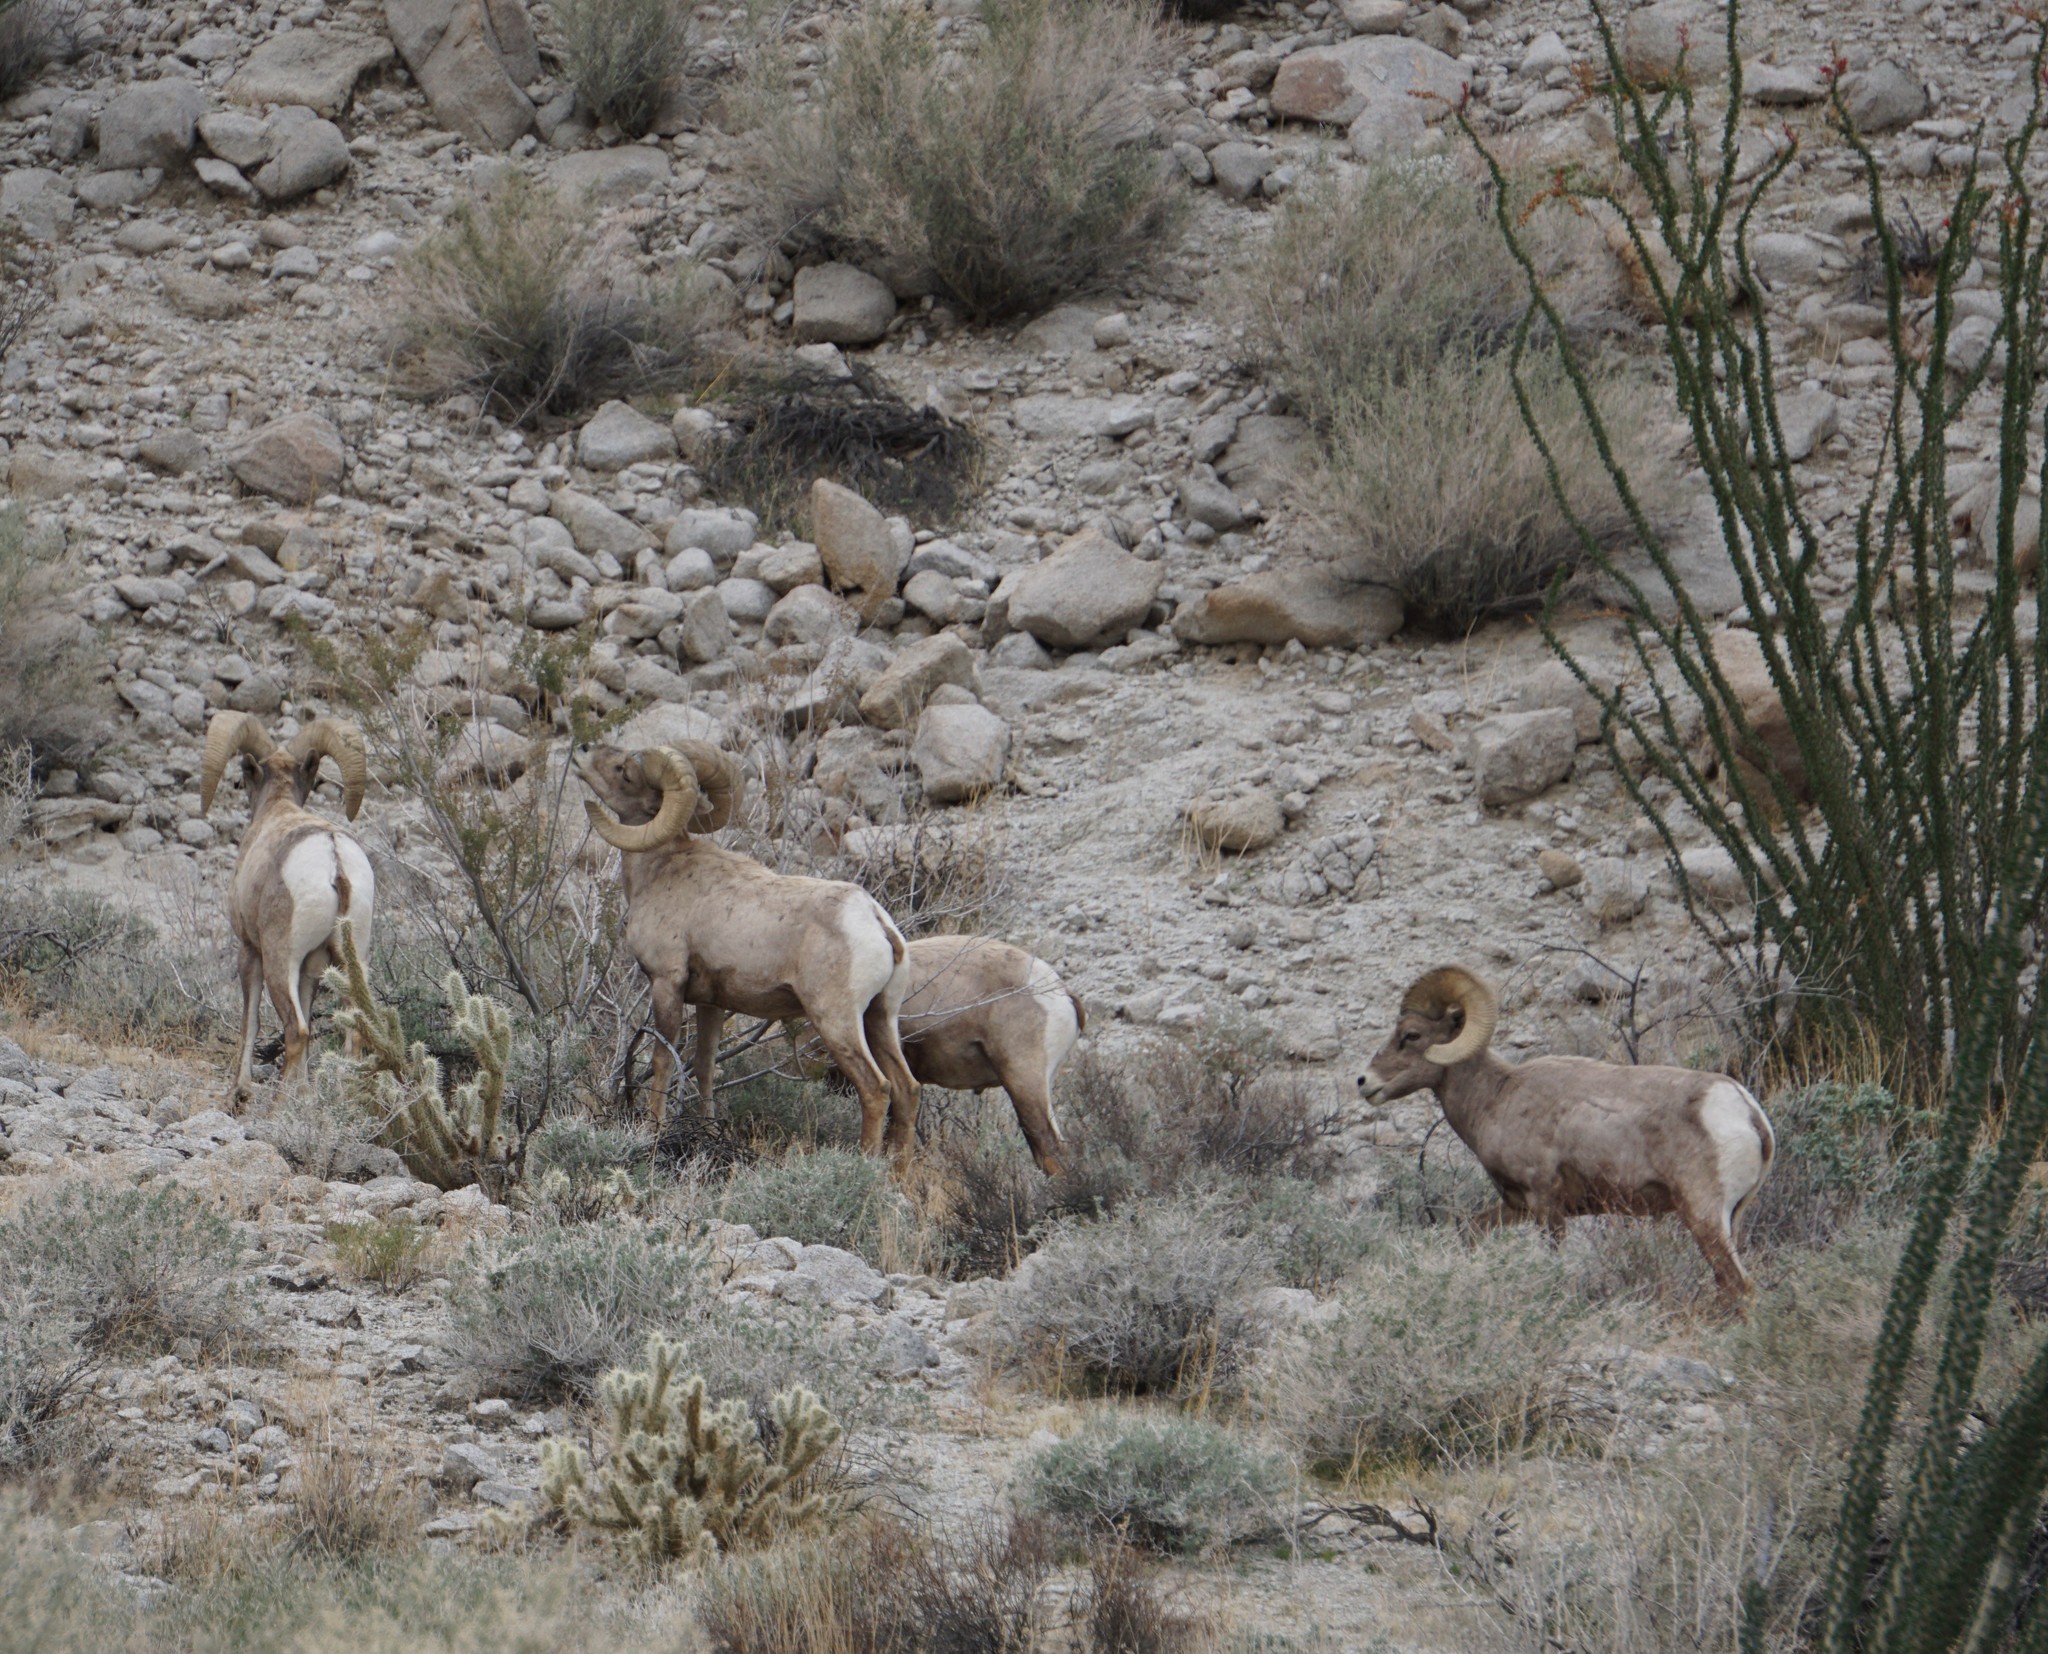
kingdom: Animalia
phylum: Chordata
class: Mammalia
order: Artiodactyla
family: Bovidae
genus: Ovis
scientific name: Ovis canadensis
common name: Bighorn sheep
